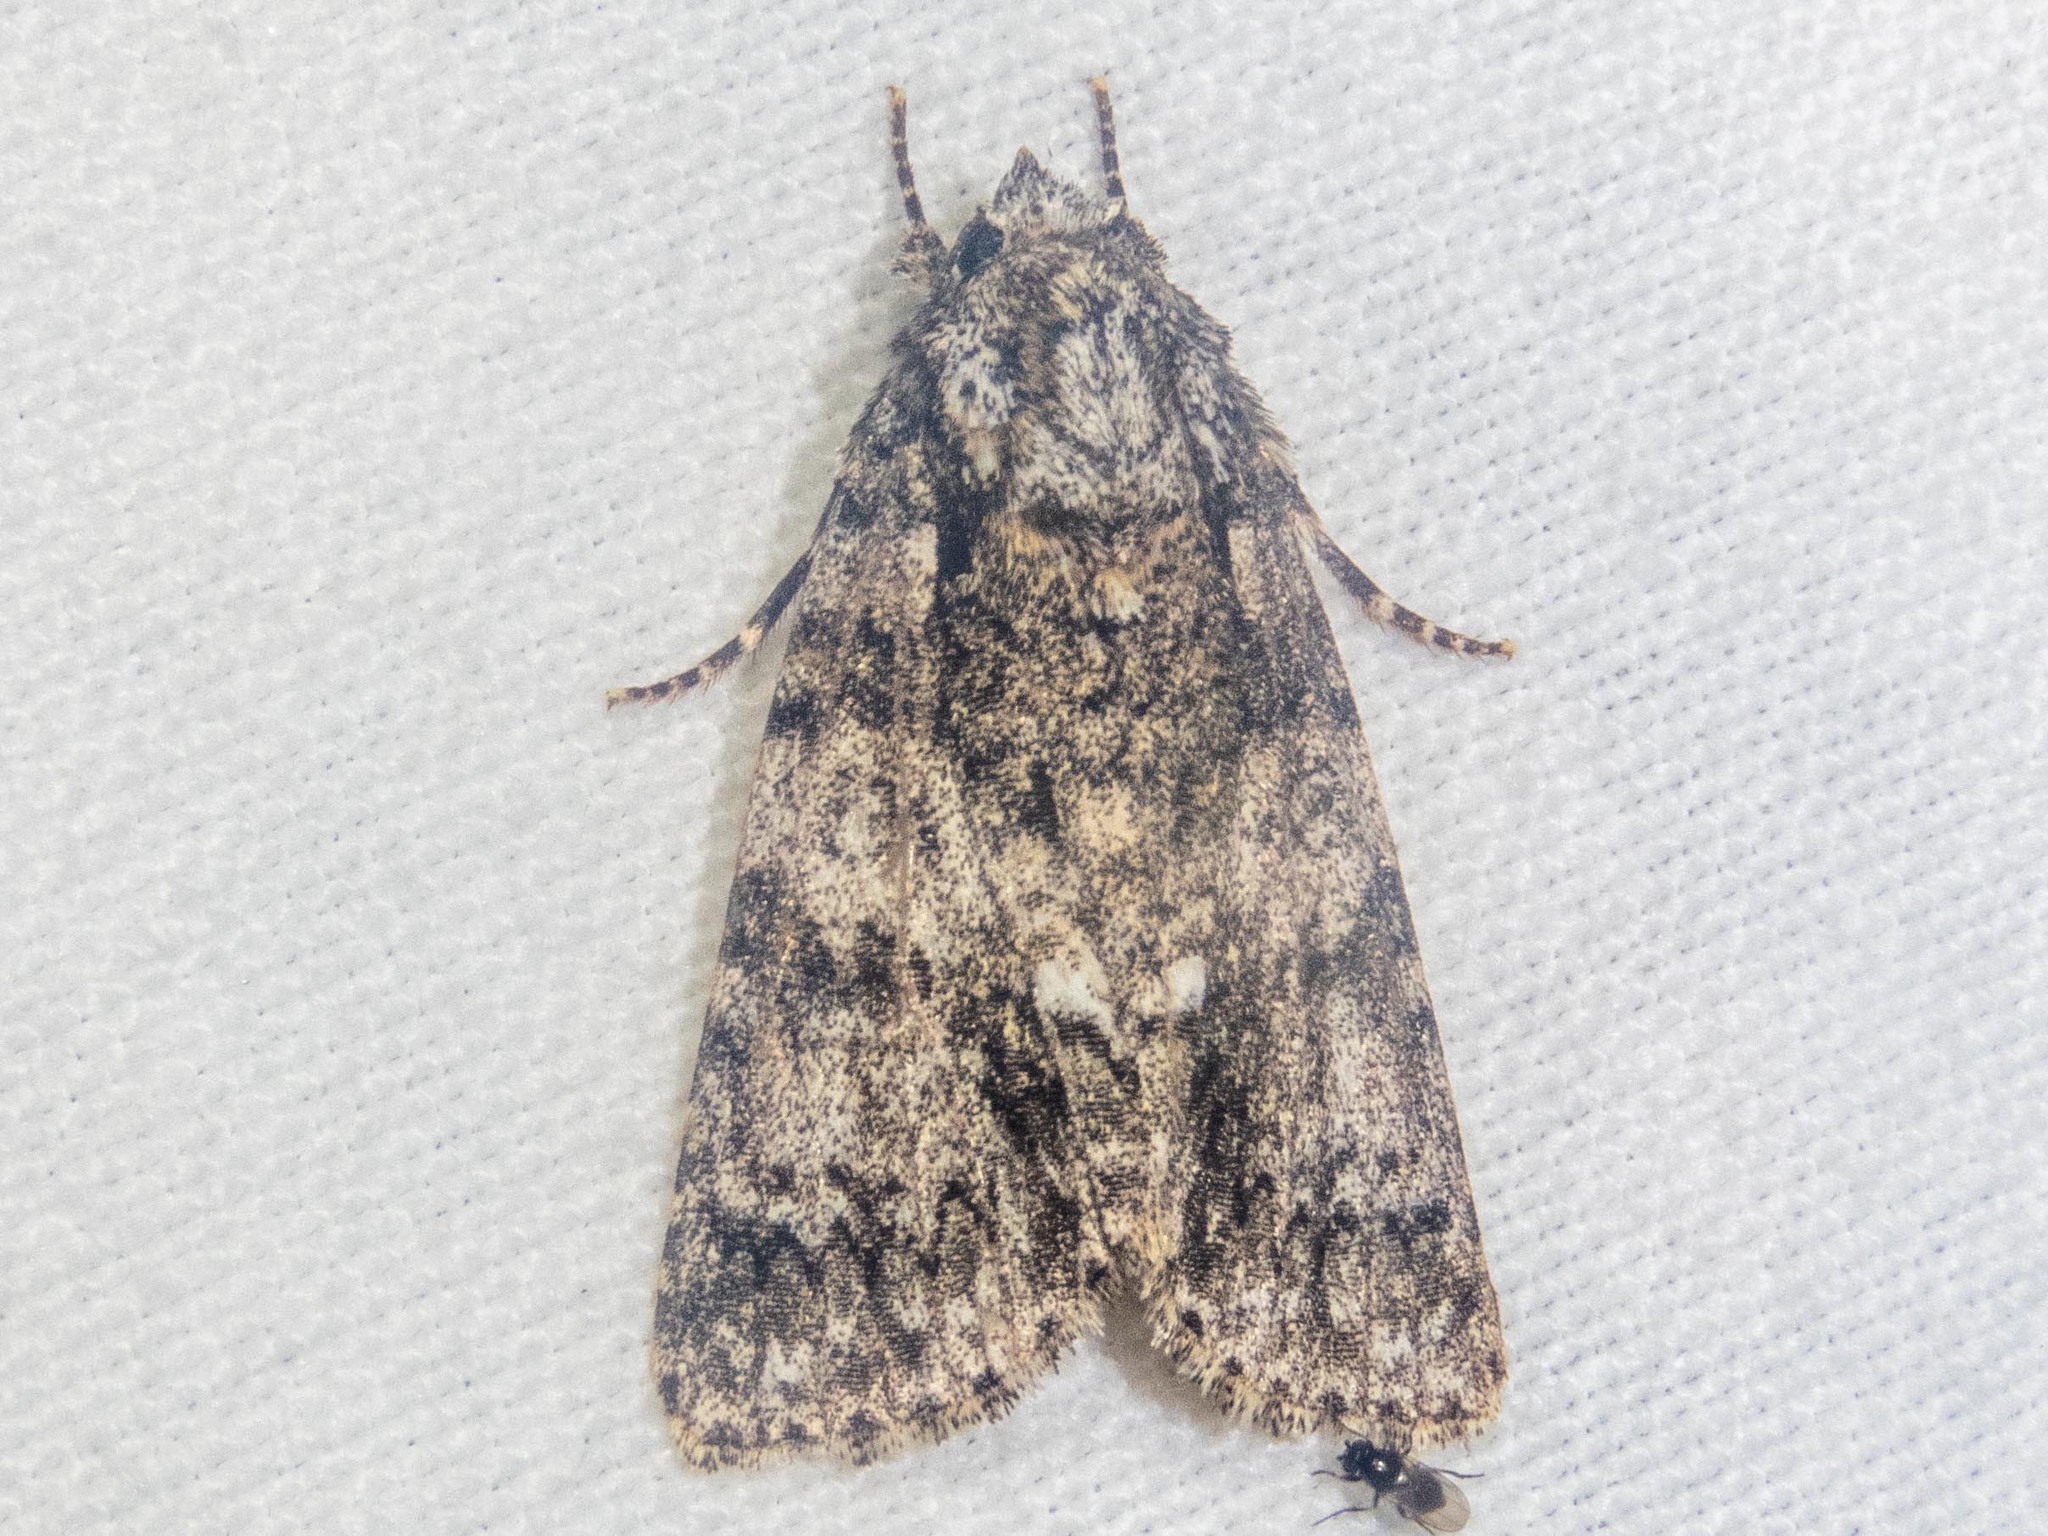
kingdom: Animalia
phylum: Arthropoda
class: Insecta
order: Lepidoptera
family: Noctuidae
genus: Acronicta
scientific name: Acronicta rumicis
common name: Knot grass
